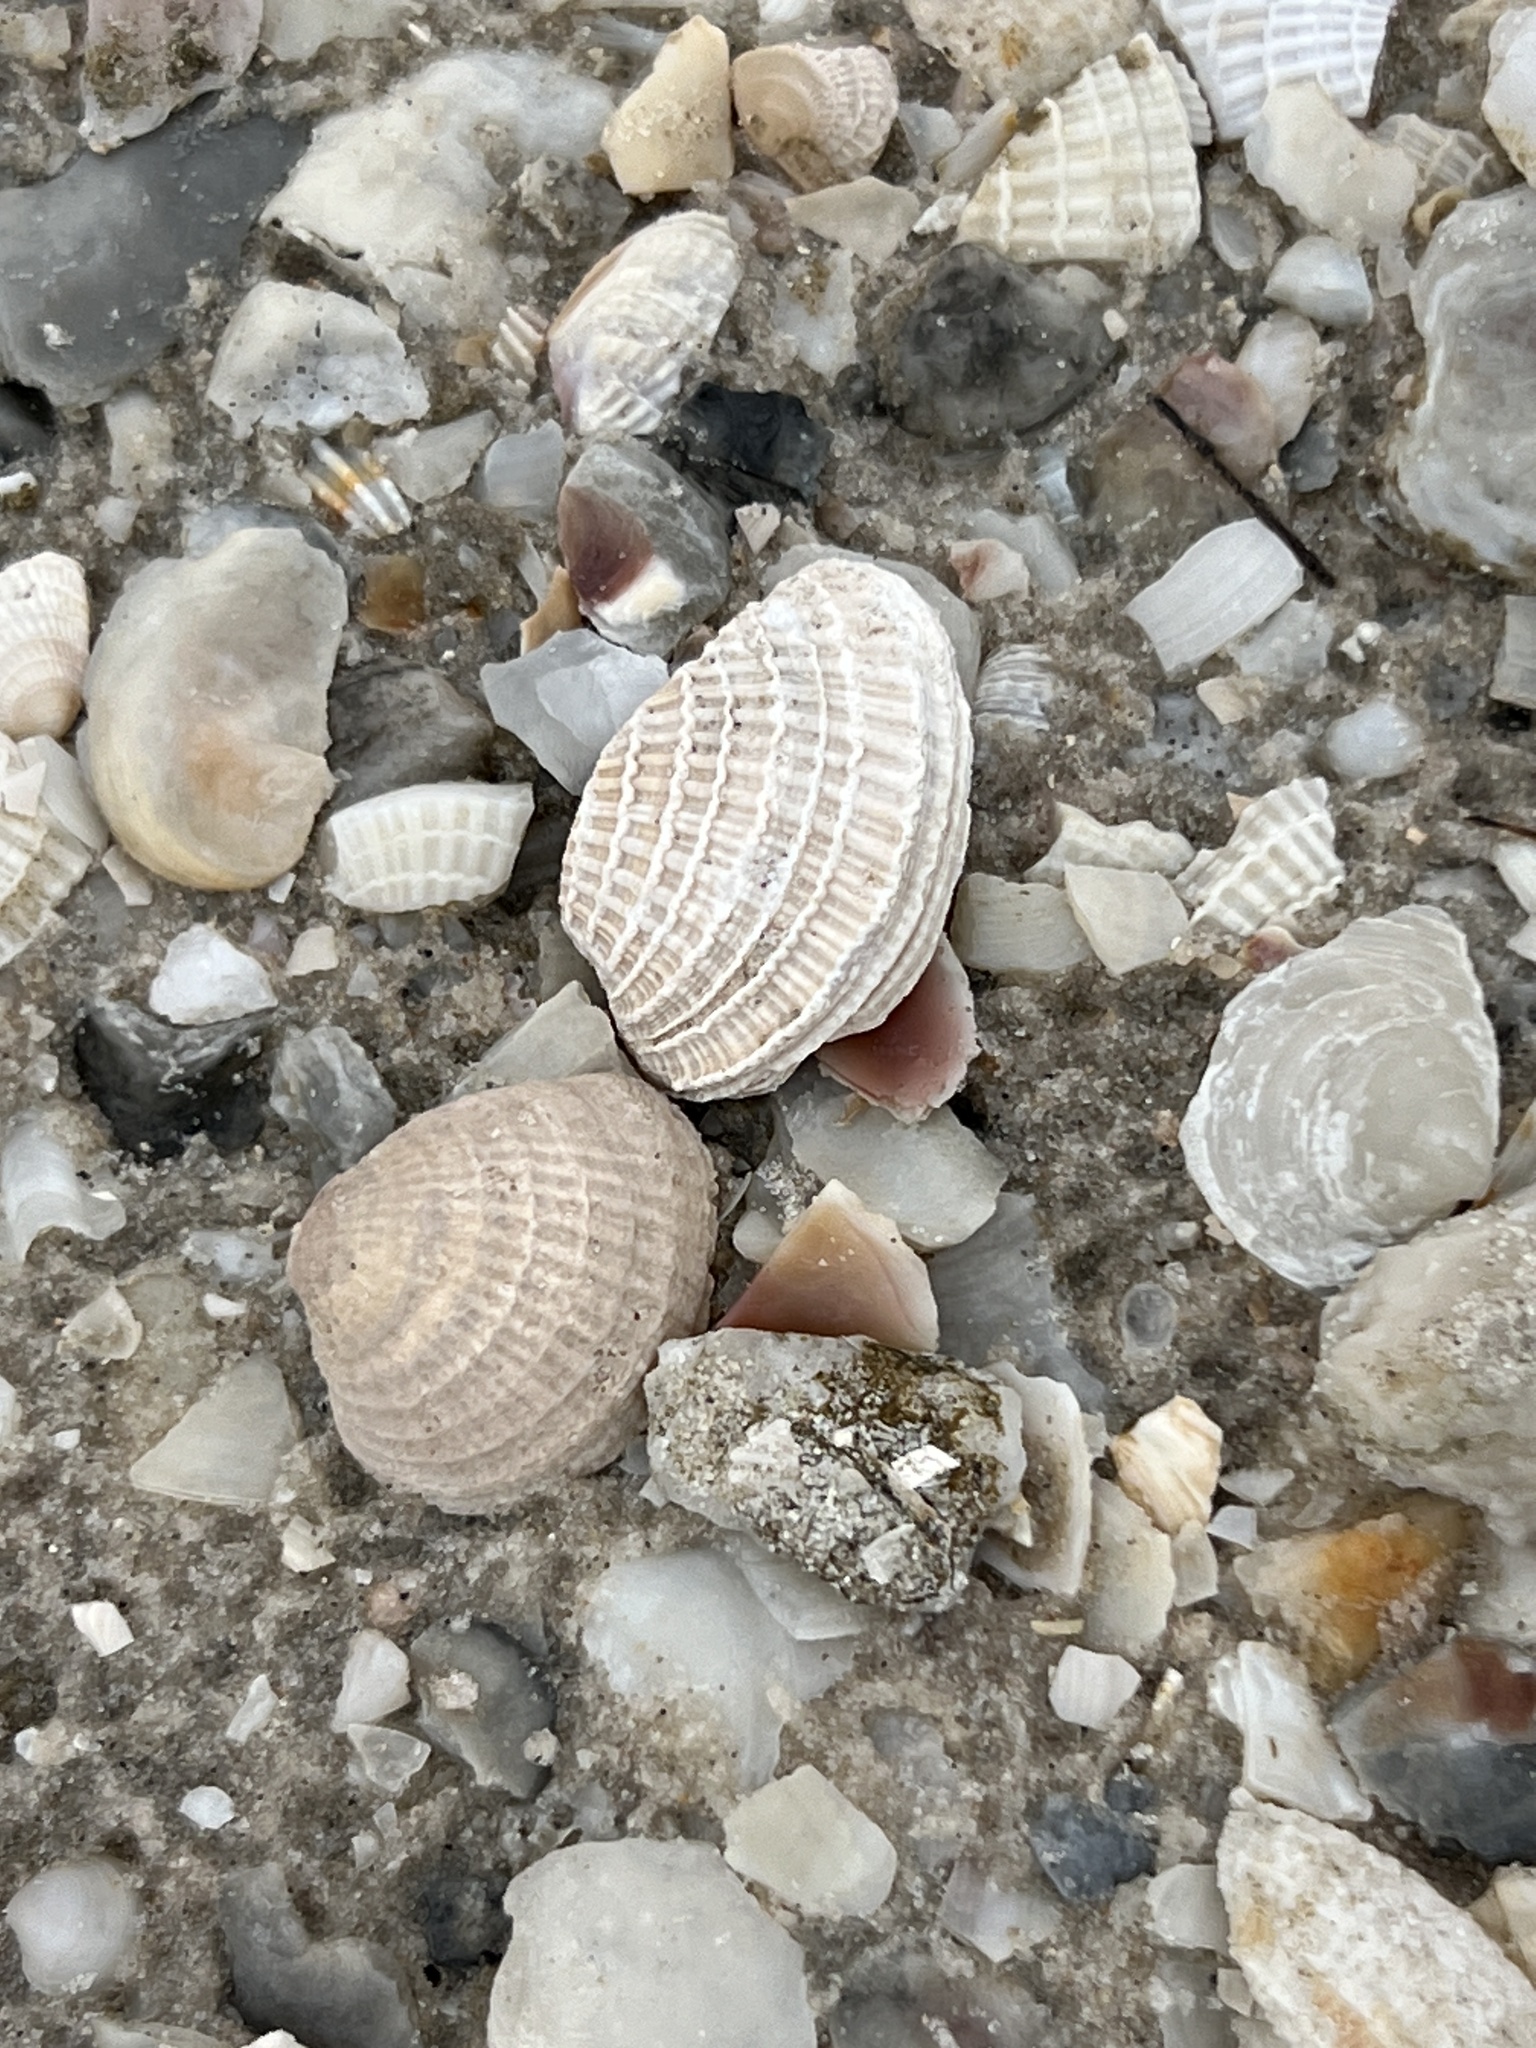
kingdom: Animalia
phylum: Mollusca
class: Bivalvia
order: Venerida
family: Veneridae
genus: Chione
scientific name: Chione elevata
